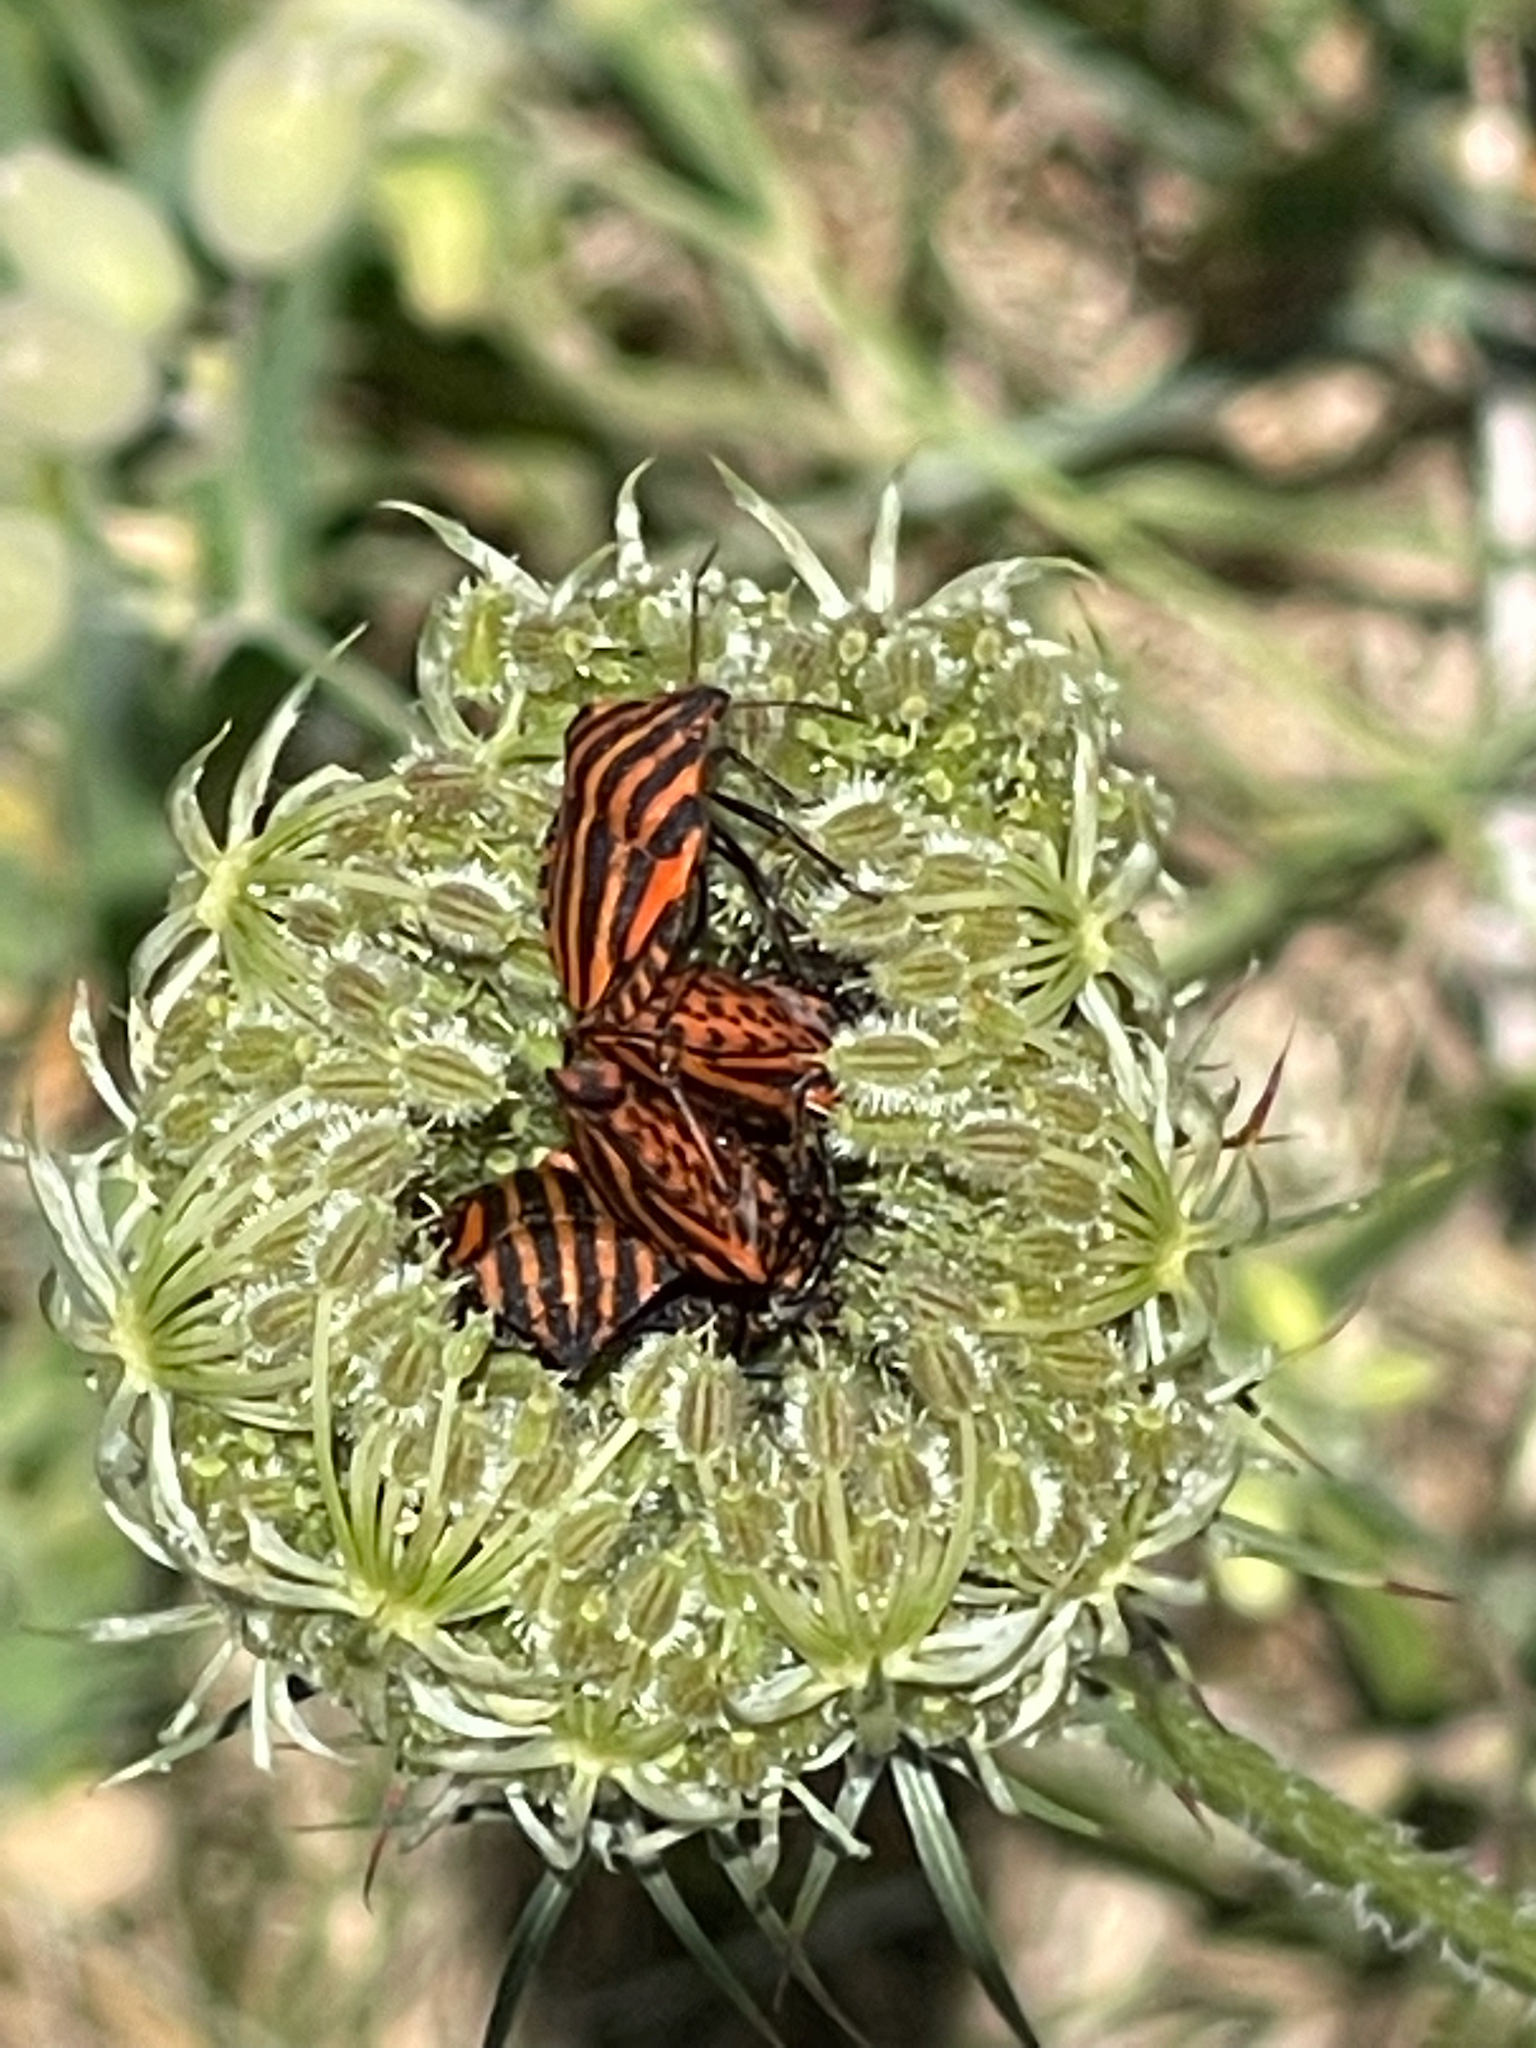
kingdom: Animalia
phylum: Arthropoda
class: Insecta
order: Hemiptera
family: Pentatomidae
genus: Graphosoma
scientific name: Graphosoma italicum
